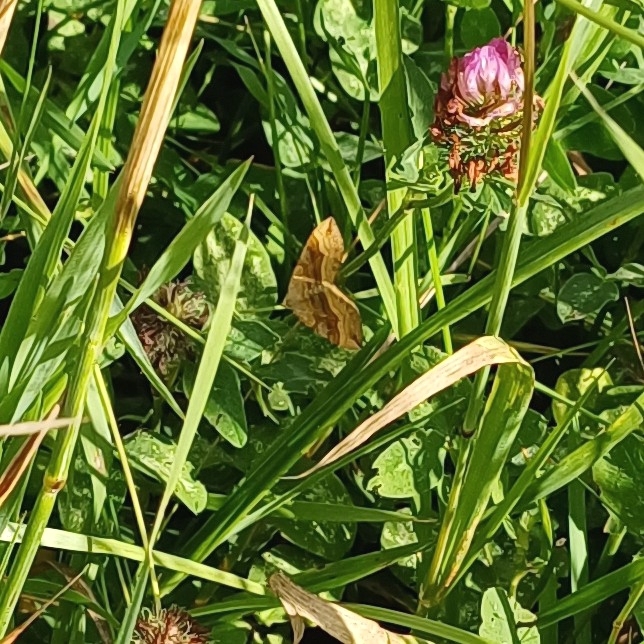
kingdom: Animalia
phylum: Arthropoda
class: Insecta
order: Lepidoptera
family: Geometridae
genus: Scotopteryx
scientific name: Scotopteryx chenopodiata
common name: Shaded broad-bar
